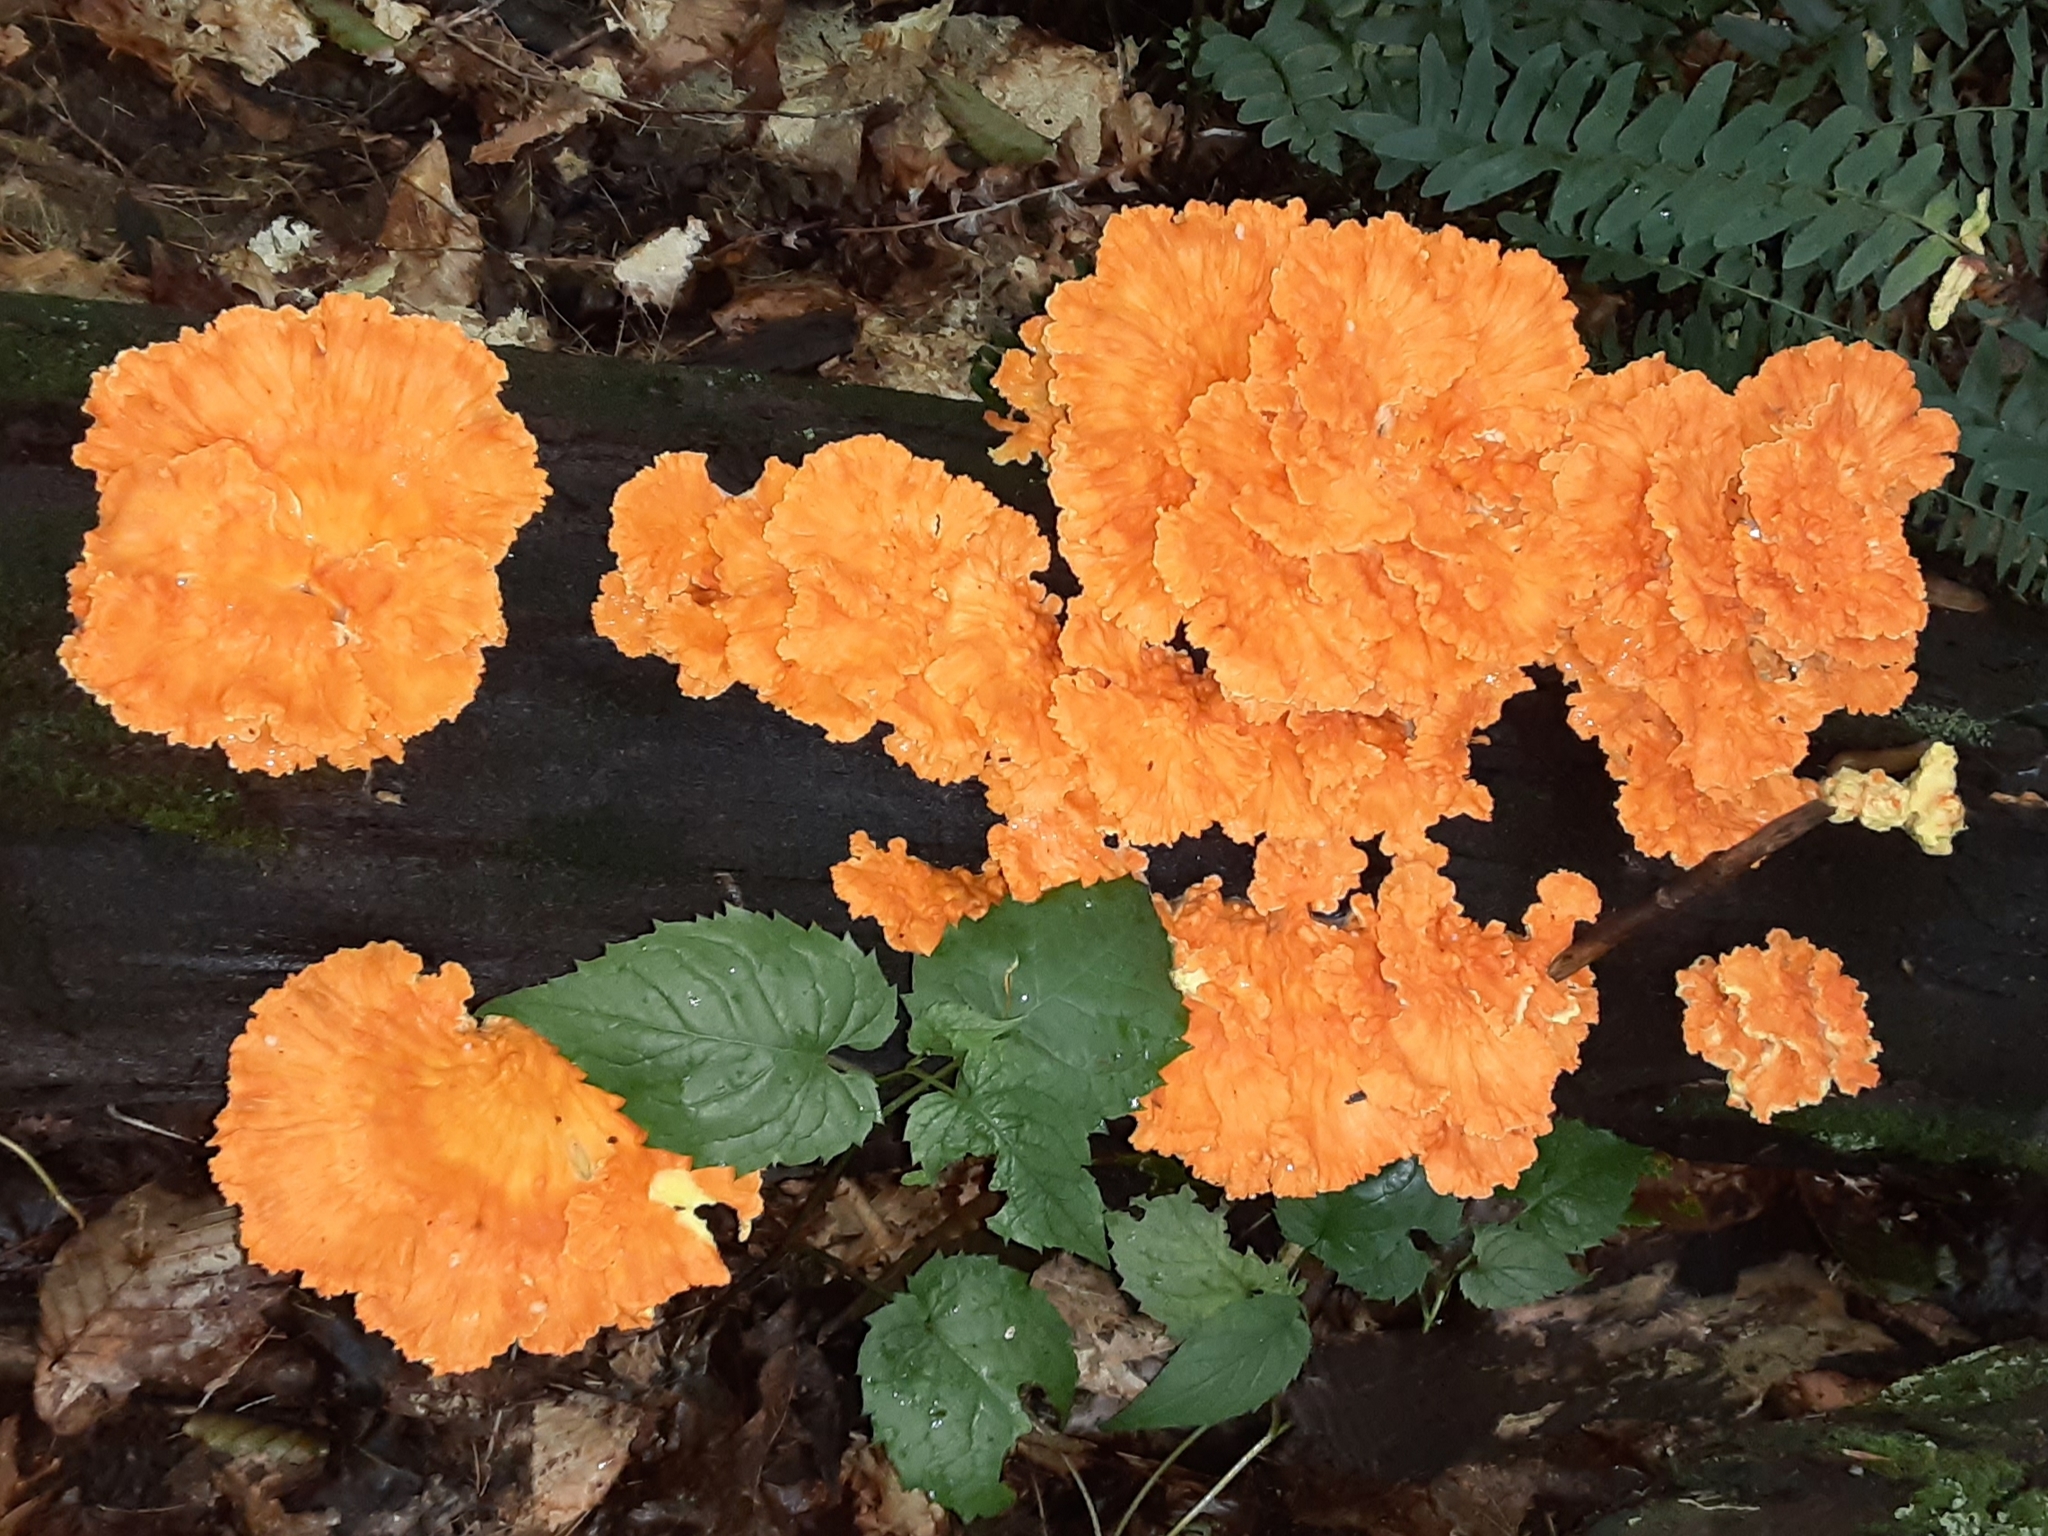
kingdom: Fungi
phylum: Basidiomycota
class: Agaricomycetes
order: Polyporales
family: Laetiporaceae
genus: Laetiporus
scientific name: Laetiporus sulphureus
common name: Chicken of the woods
